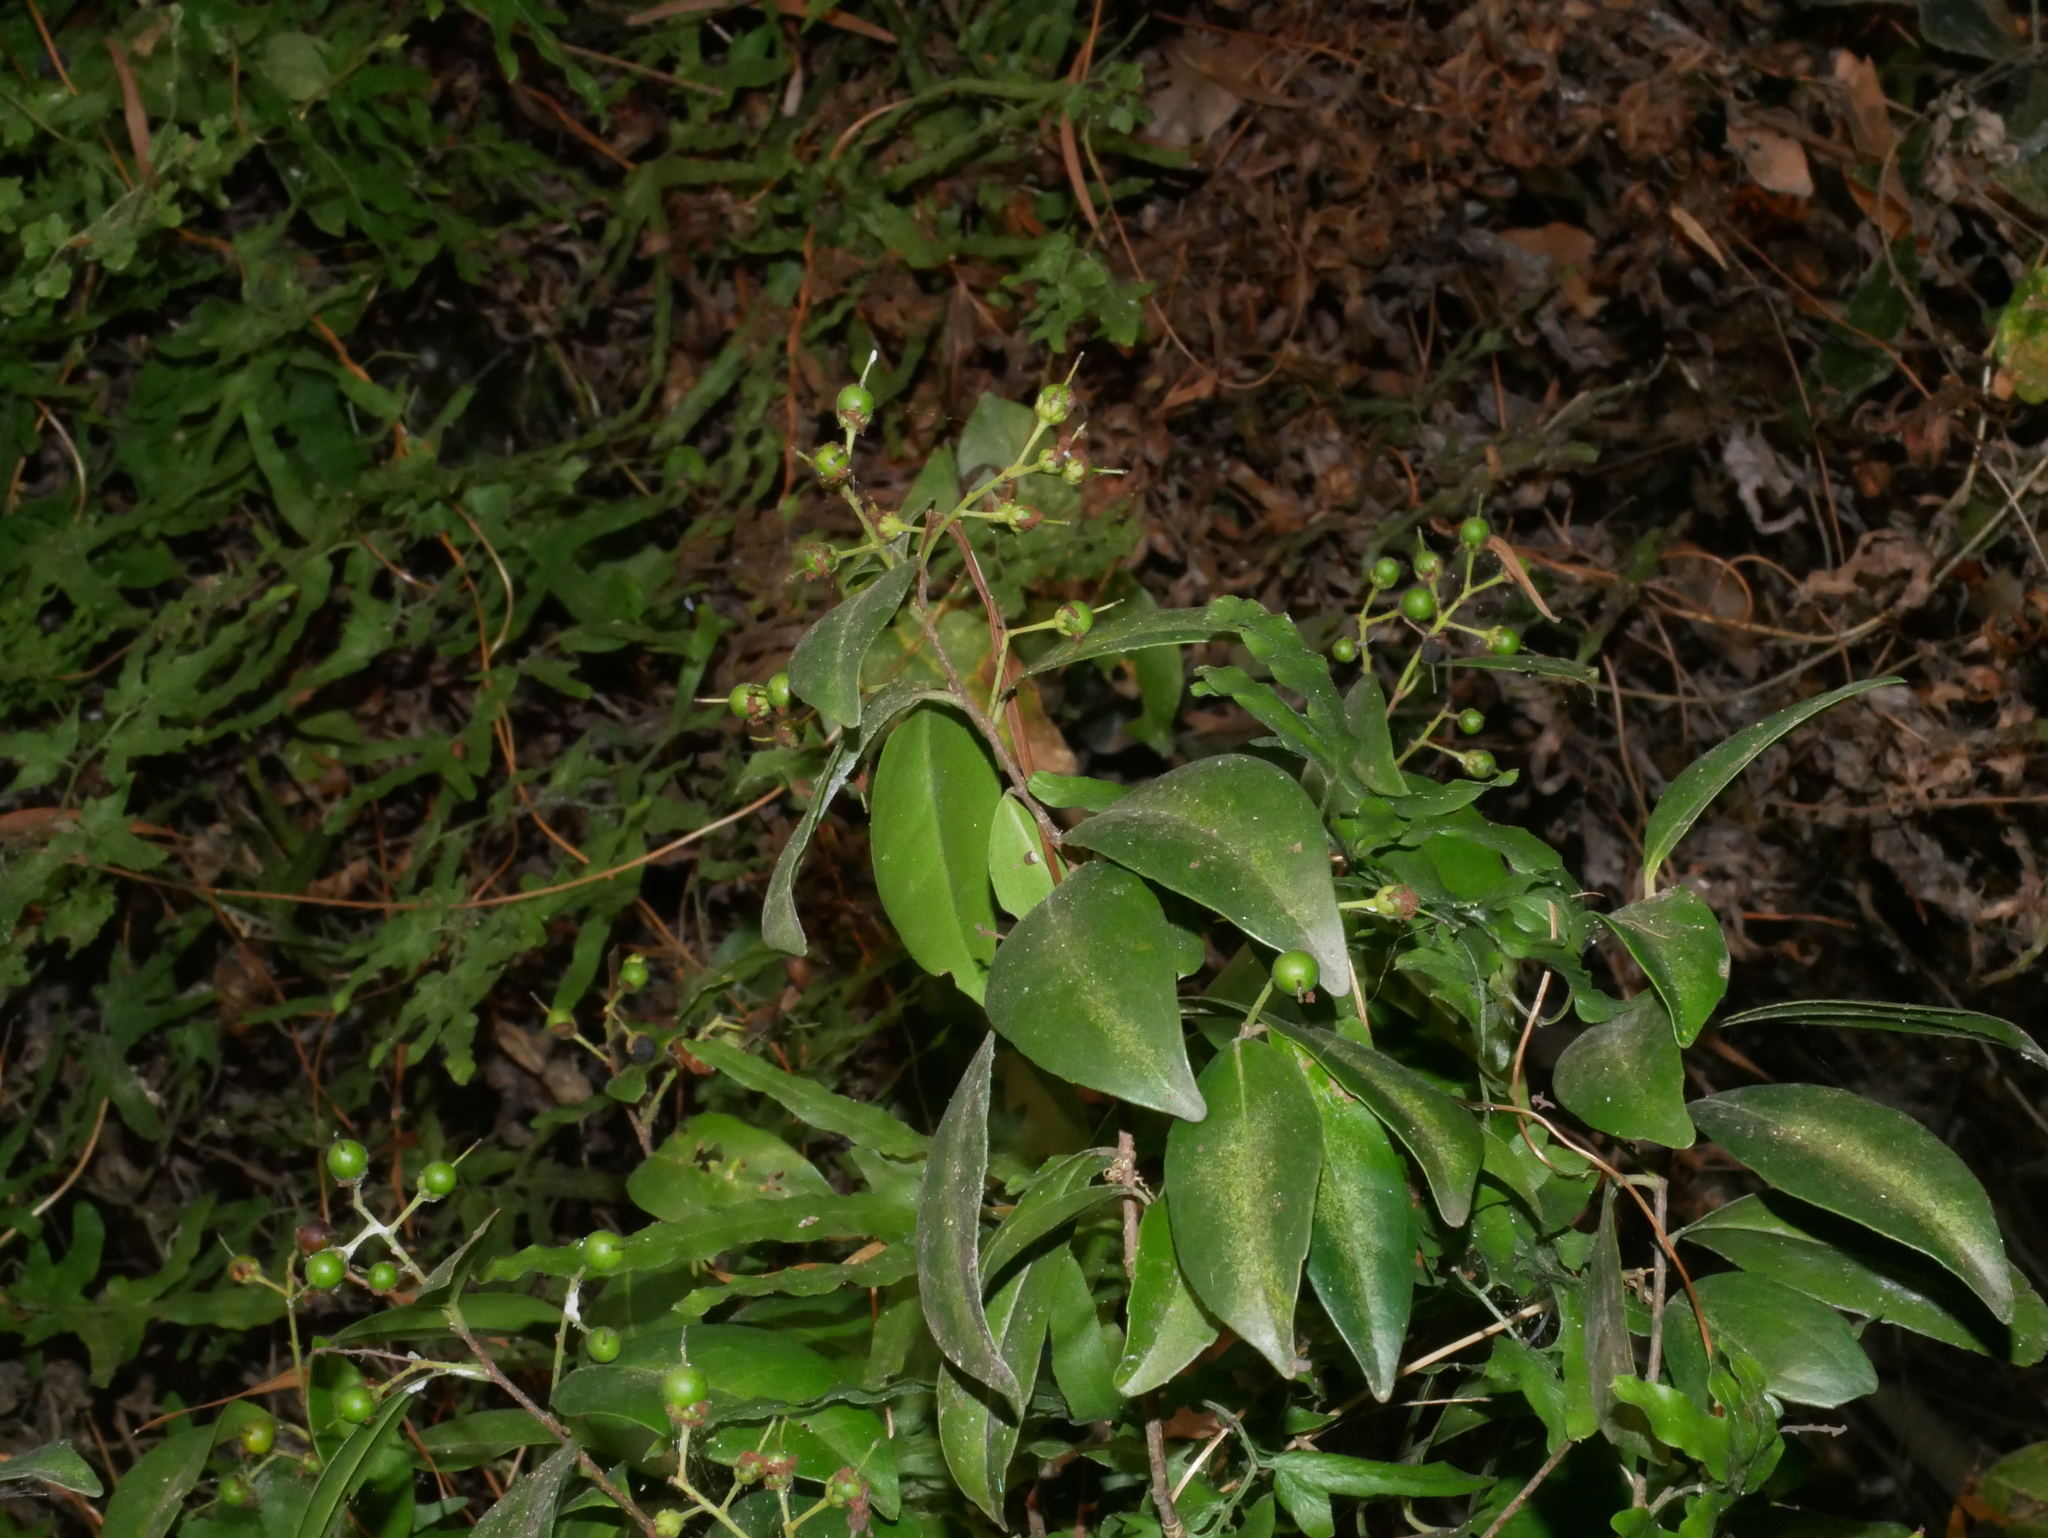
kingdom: Plantae
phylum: Tracheophyta
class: Magnoliopsida
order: Malpighiales
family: Salicaceae
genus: Scolopia
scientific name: Scolopia oldhamii
